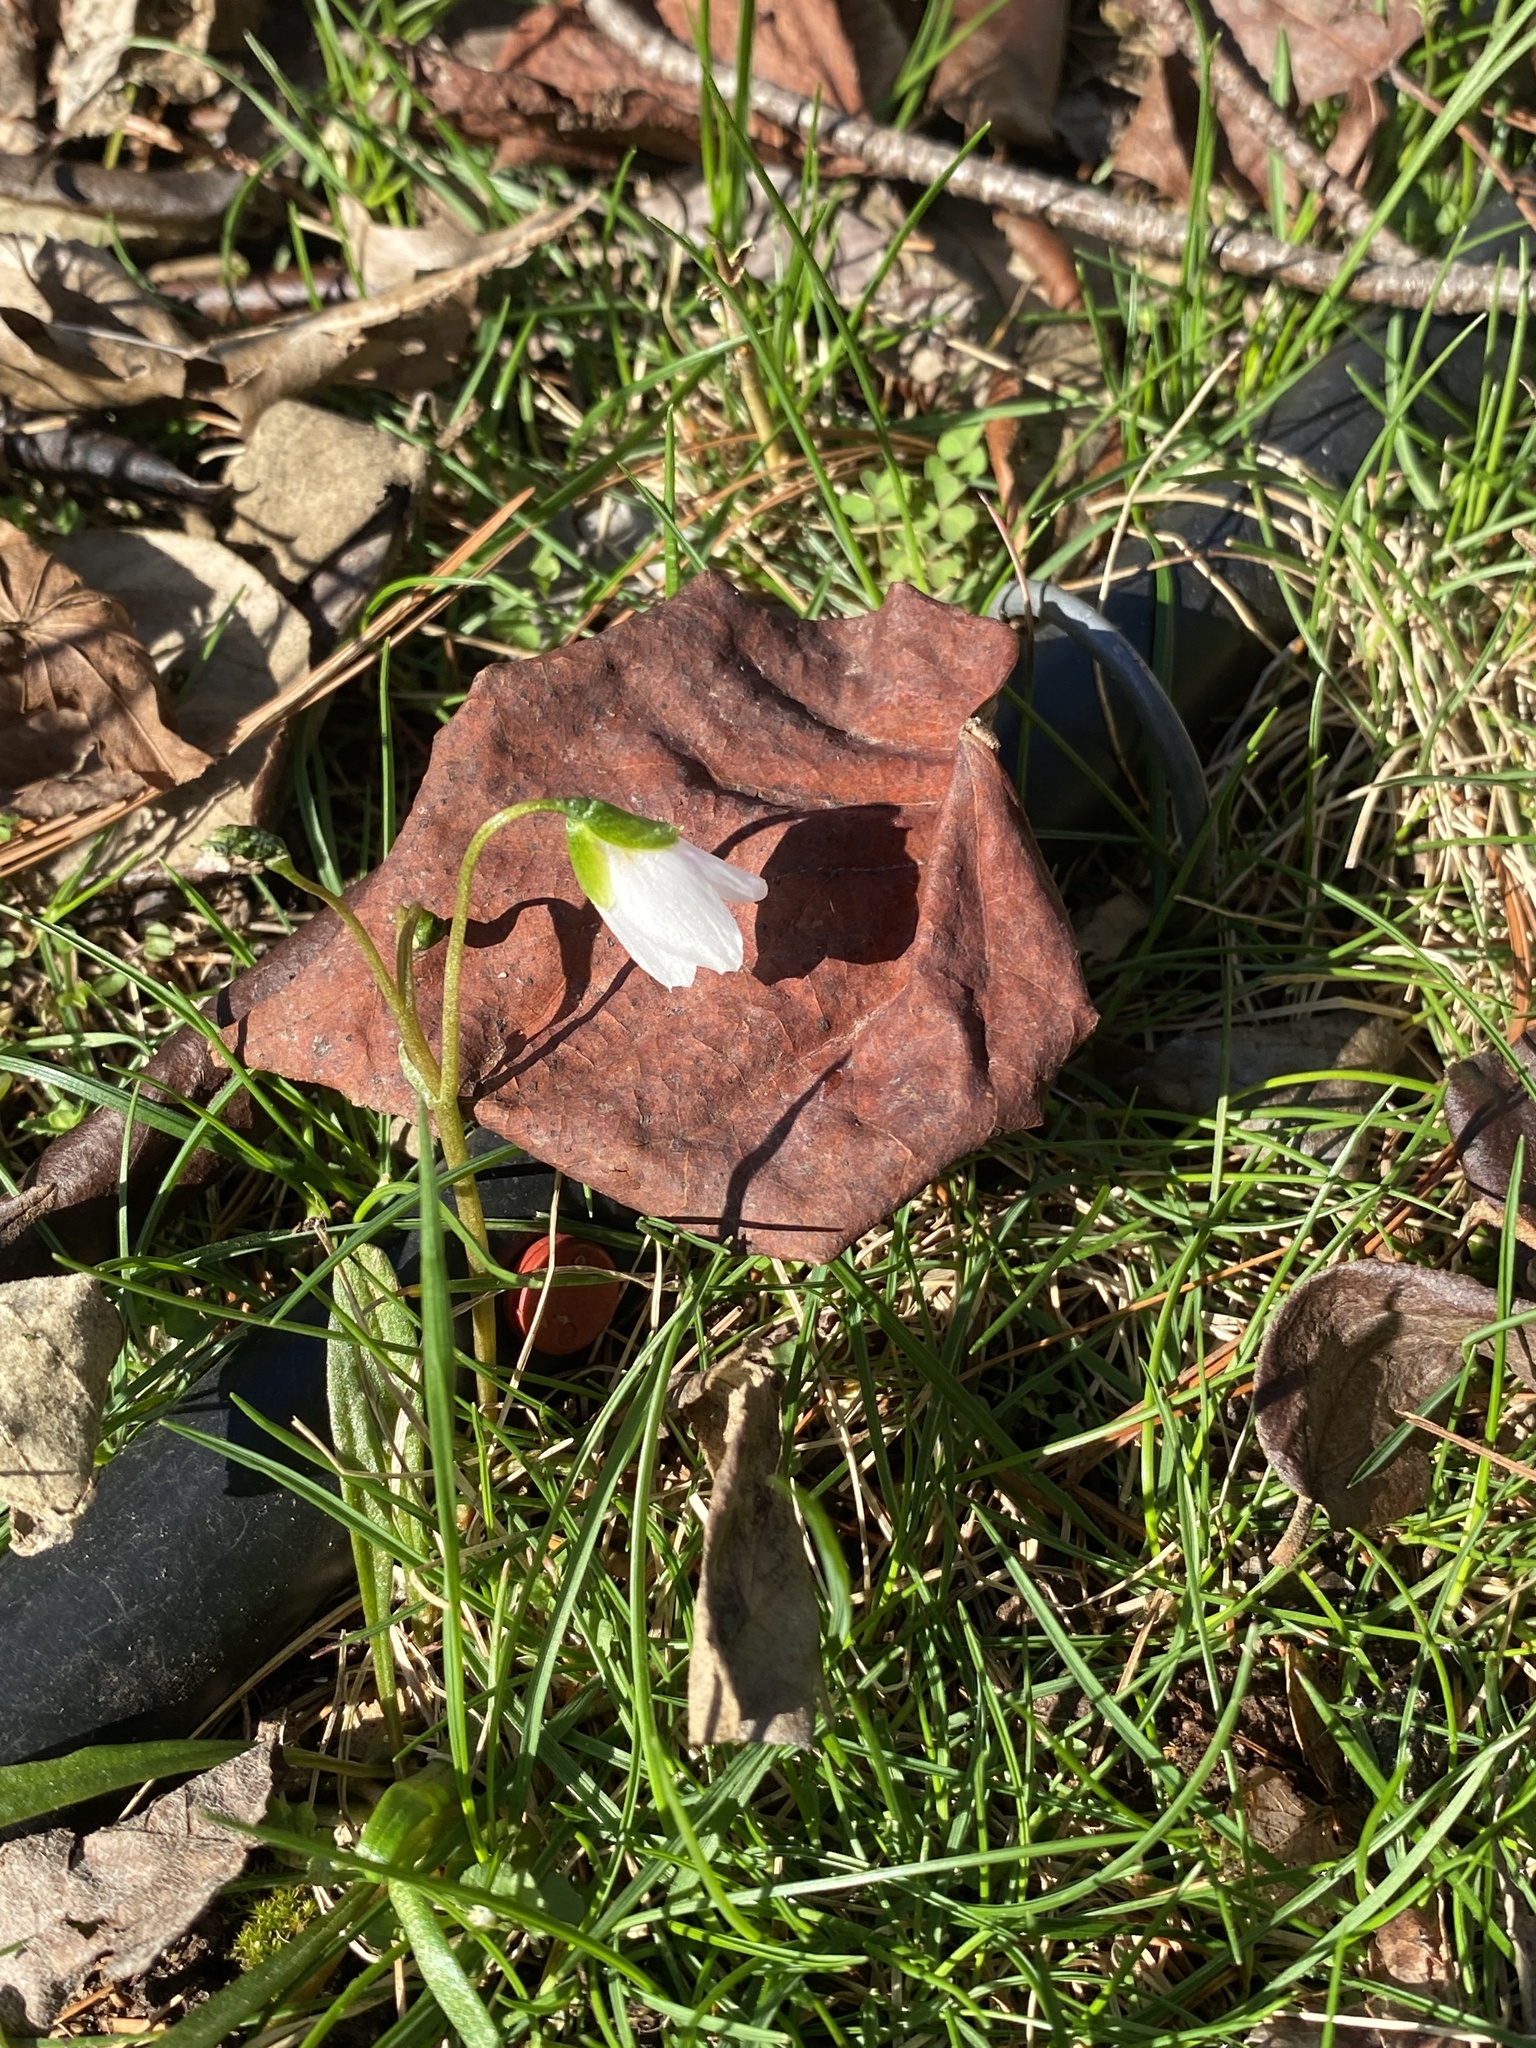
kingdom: Plantae
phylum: Tracheophyta
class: Magnoliopsida
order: Caryophyllales
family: Montiaceae
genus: Claytonia
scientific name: Claytonia virginica
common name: Virginia springbeauty
